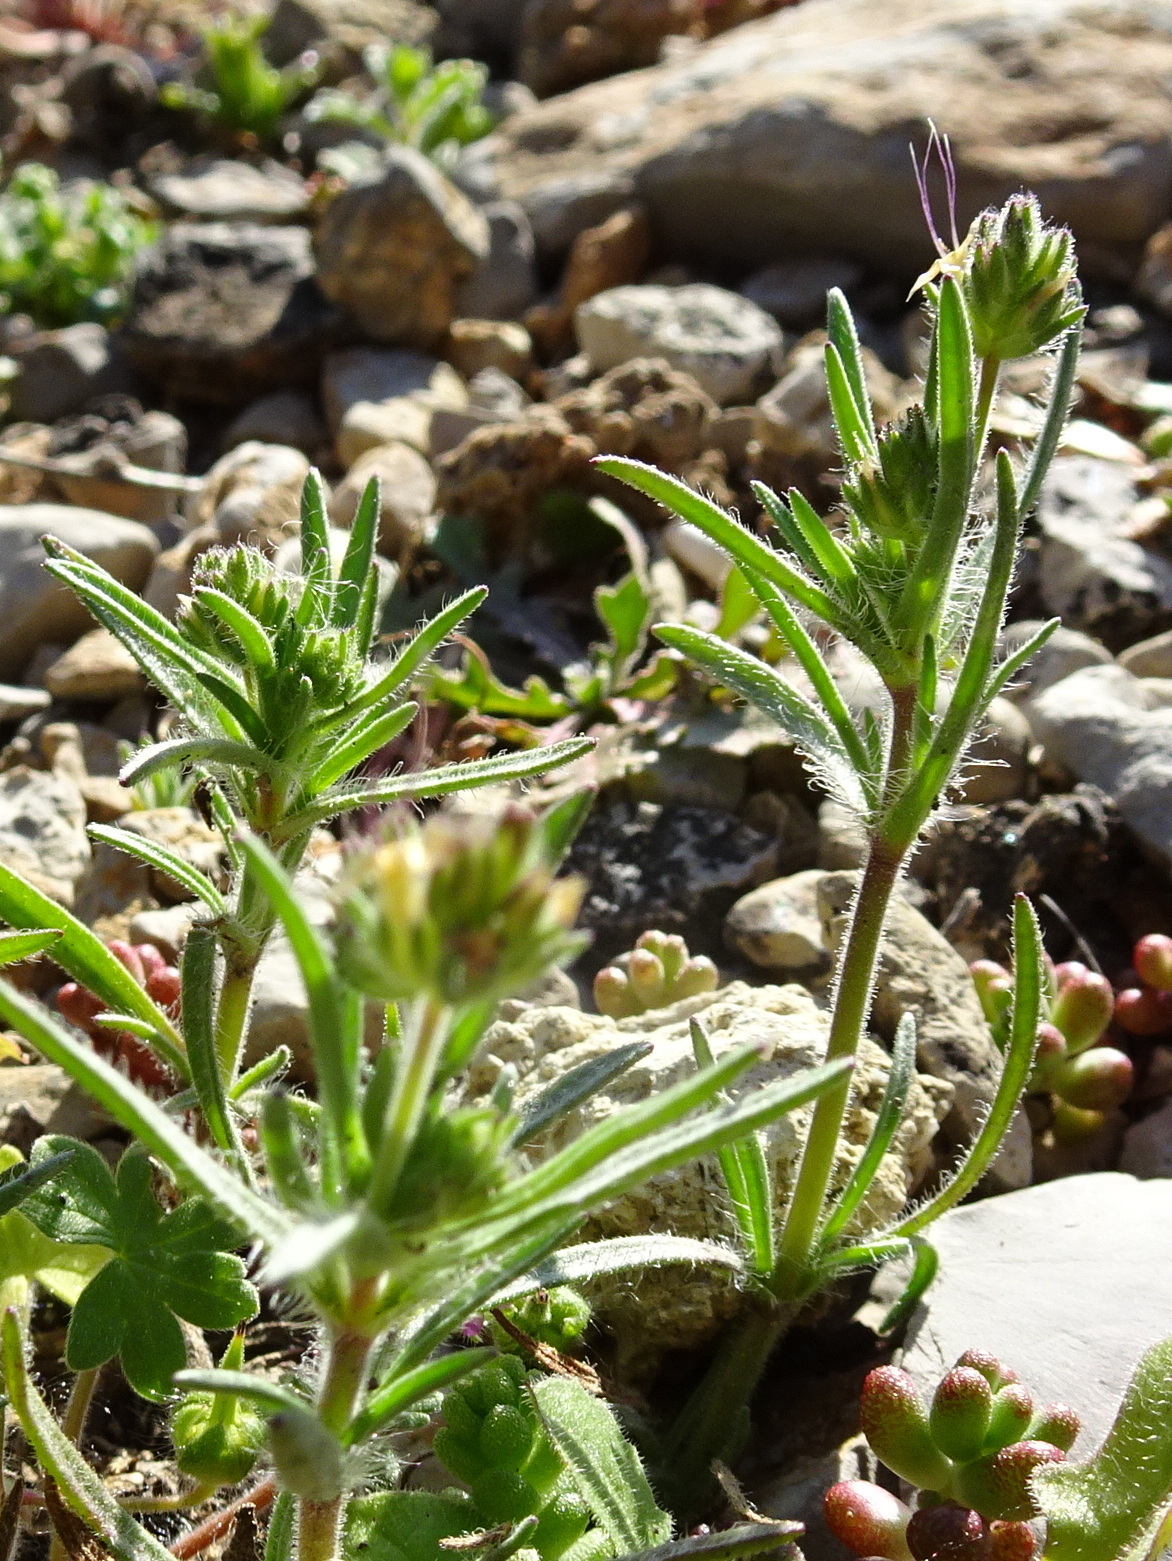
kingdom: Plantae
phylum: Tracheophyta
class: Magnoliopsida
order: Lamiales
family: Plantaginaceae
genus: Plantago
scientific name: Plantago afra
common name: Glandular plantain
